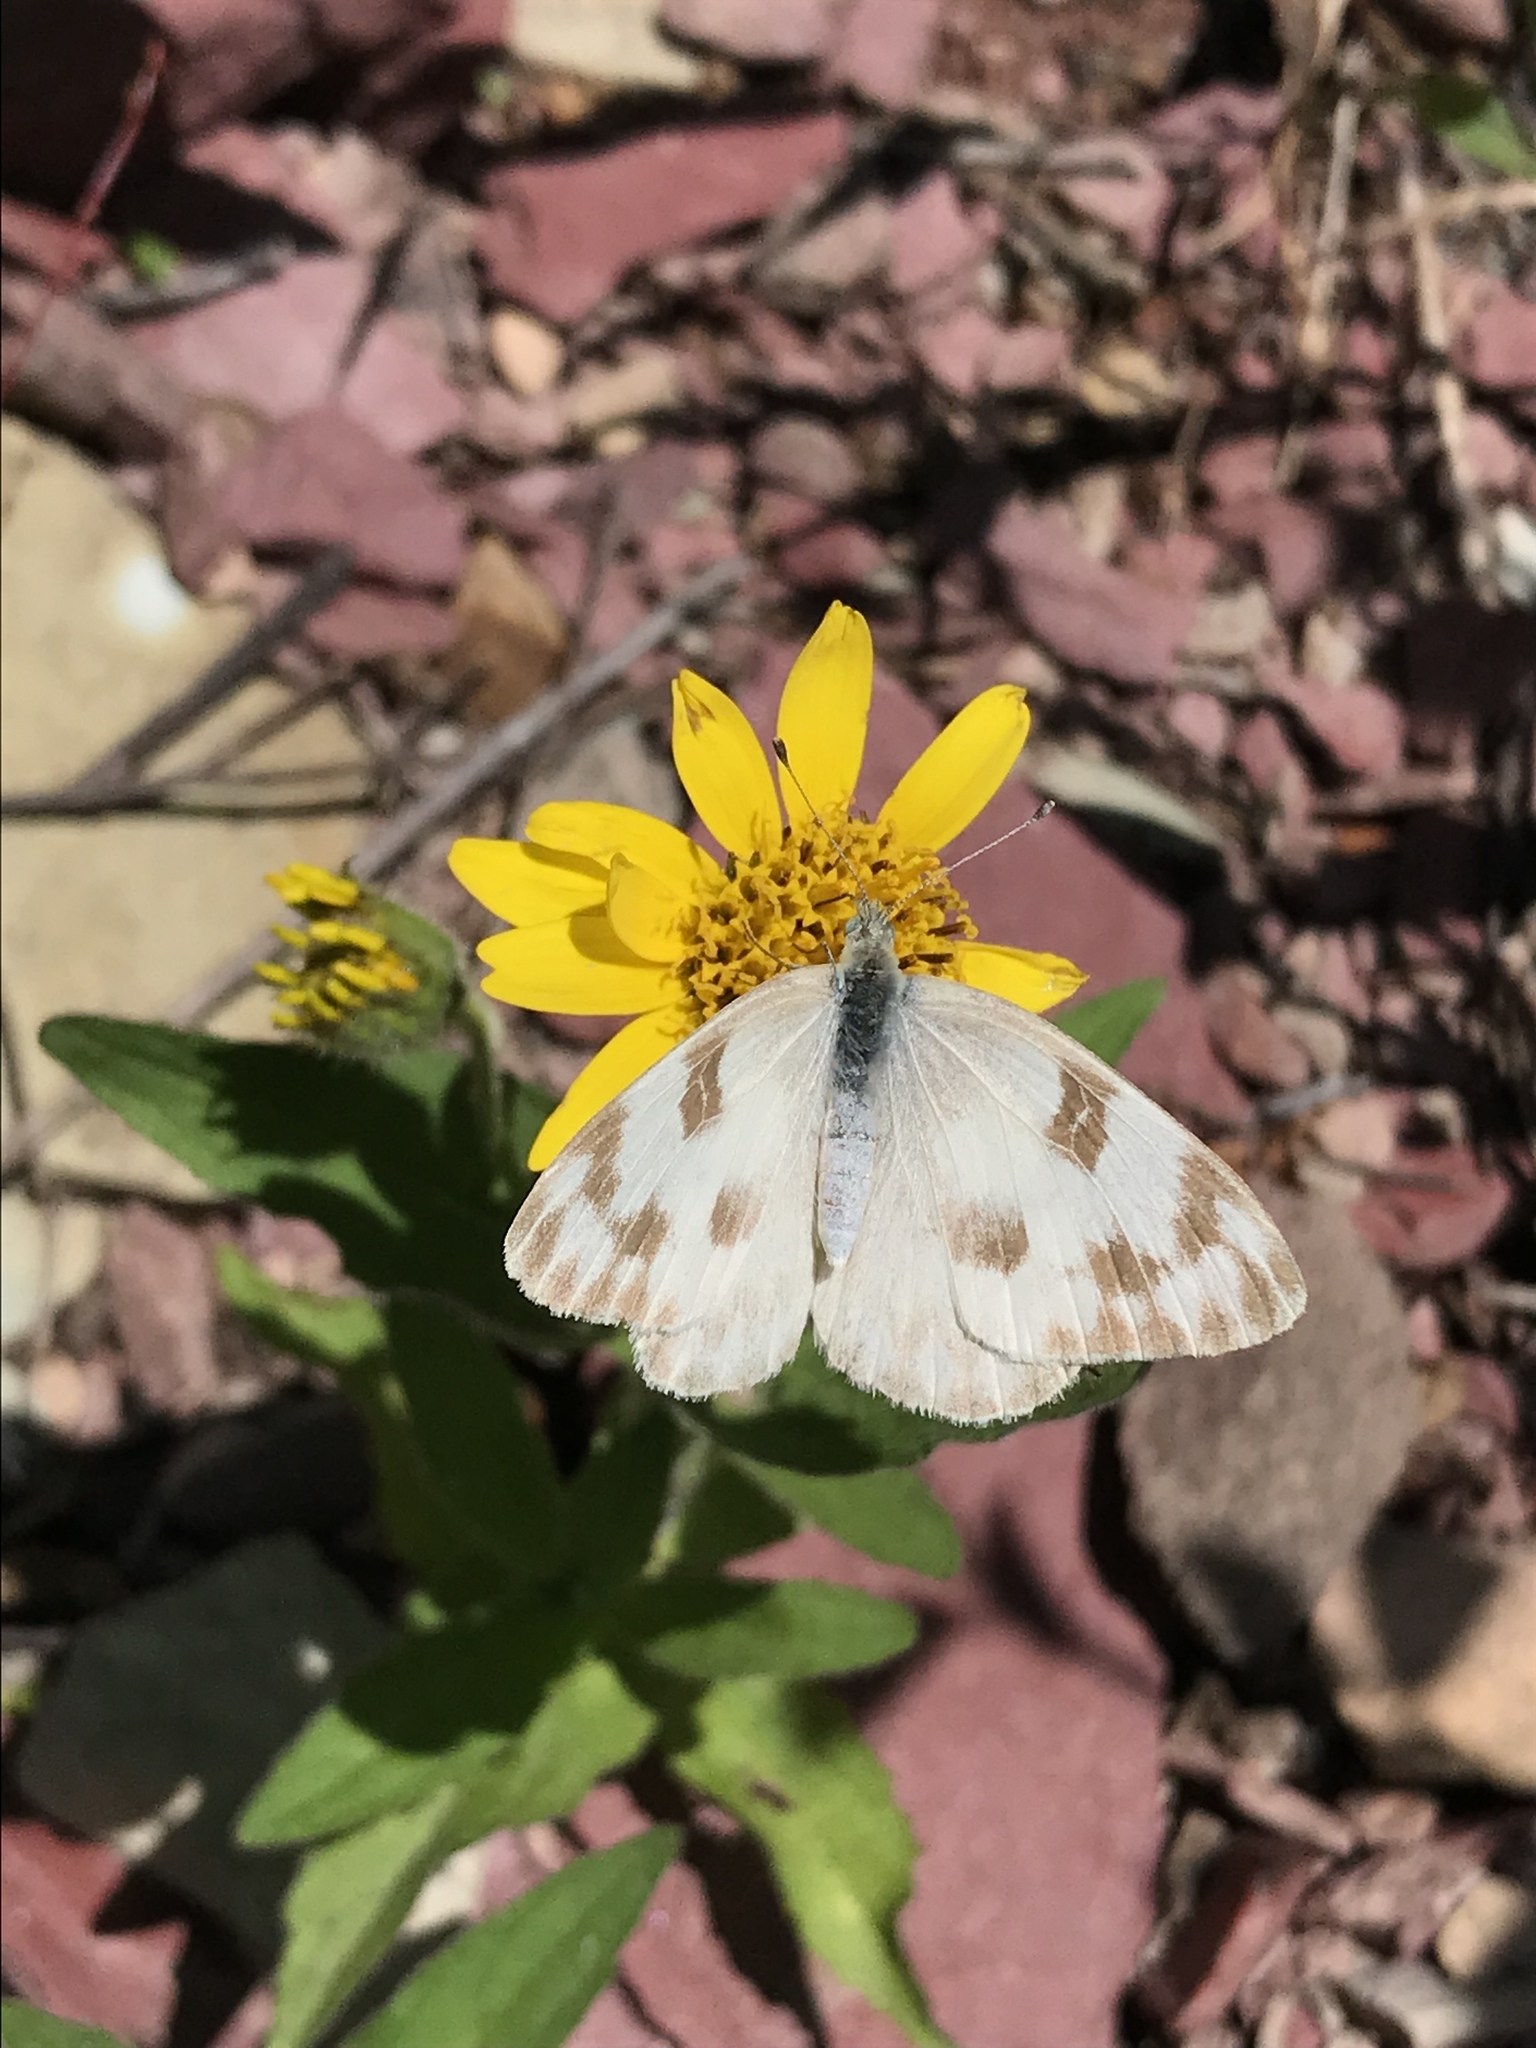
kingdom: Animalia
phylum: Arthropoda
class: Insecta
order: Lepidoptera
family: Pieridae
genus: Pontia
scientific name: Pontia occidentalis
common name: Western white
